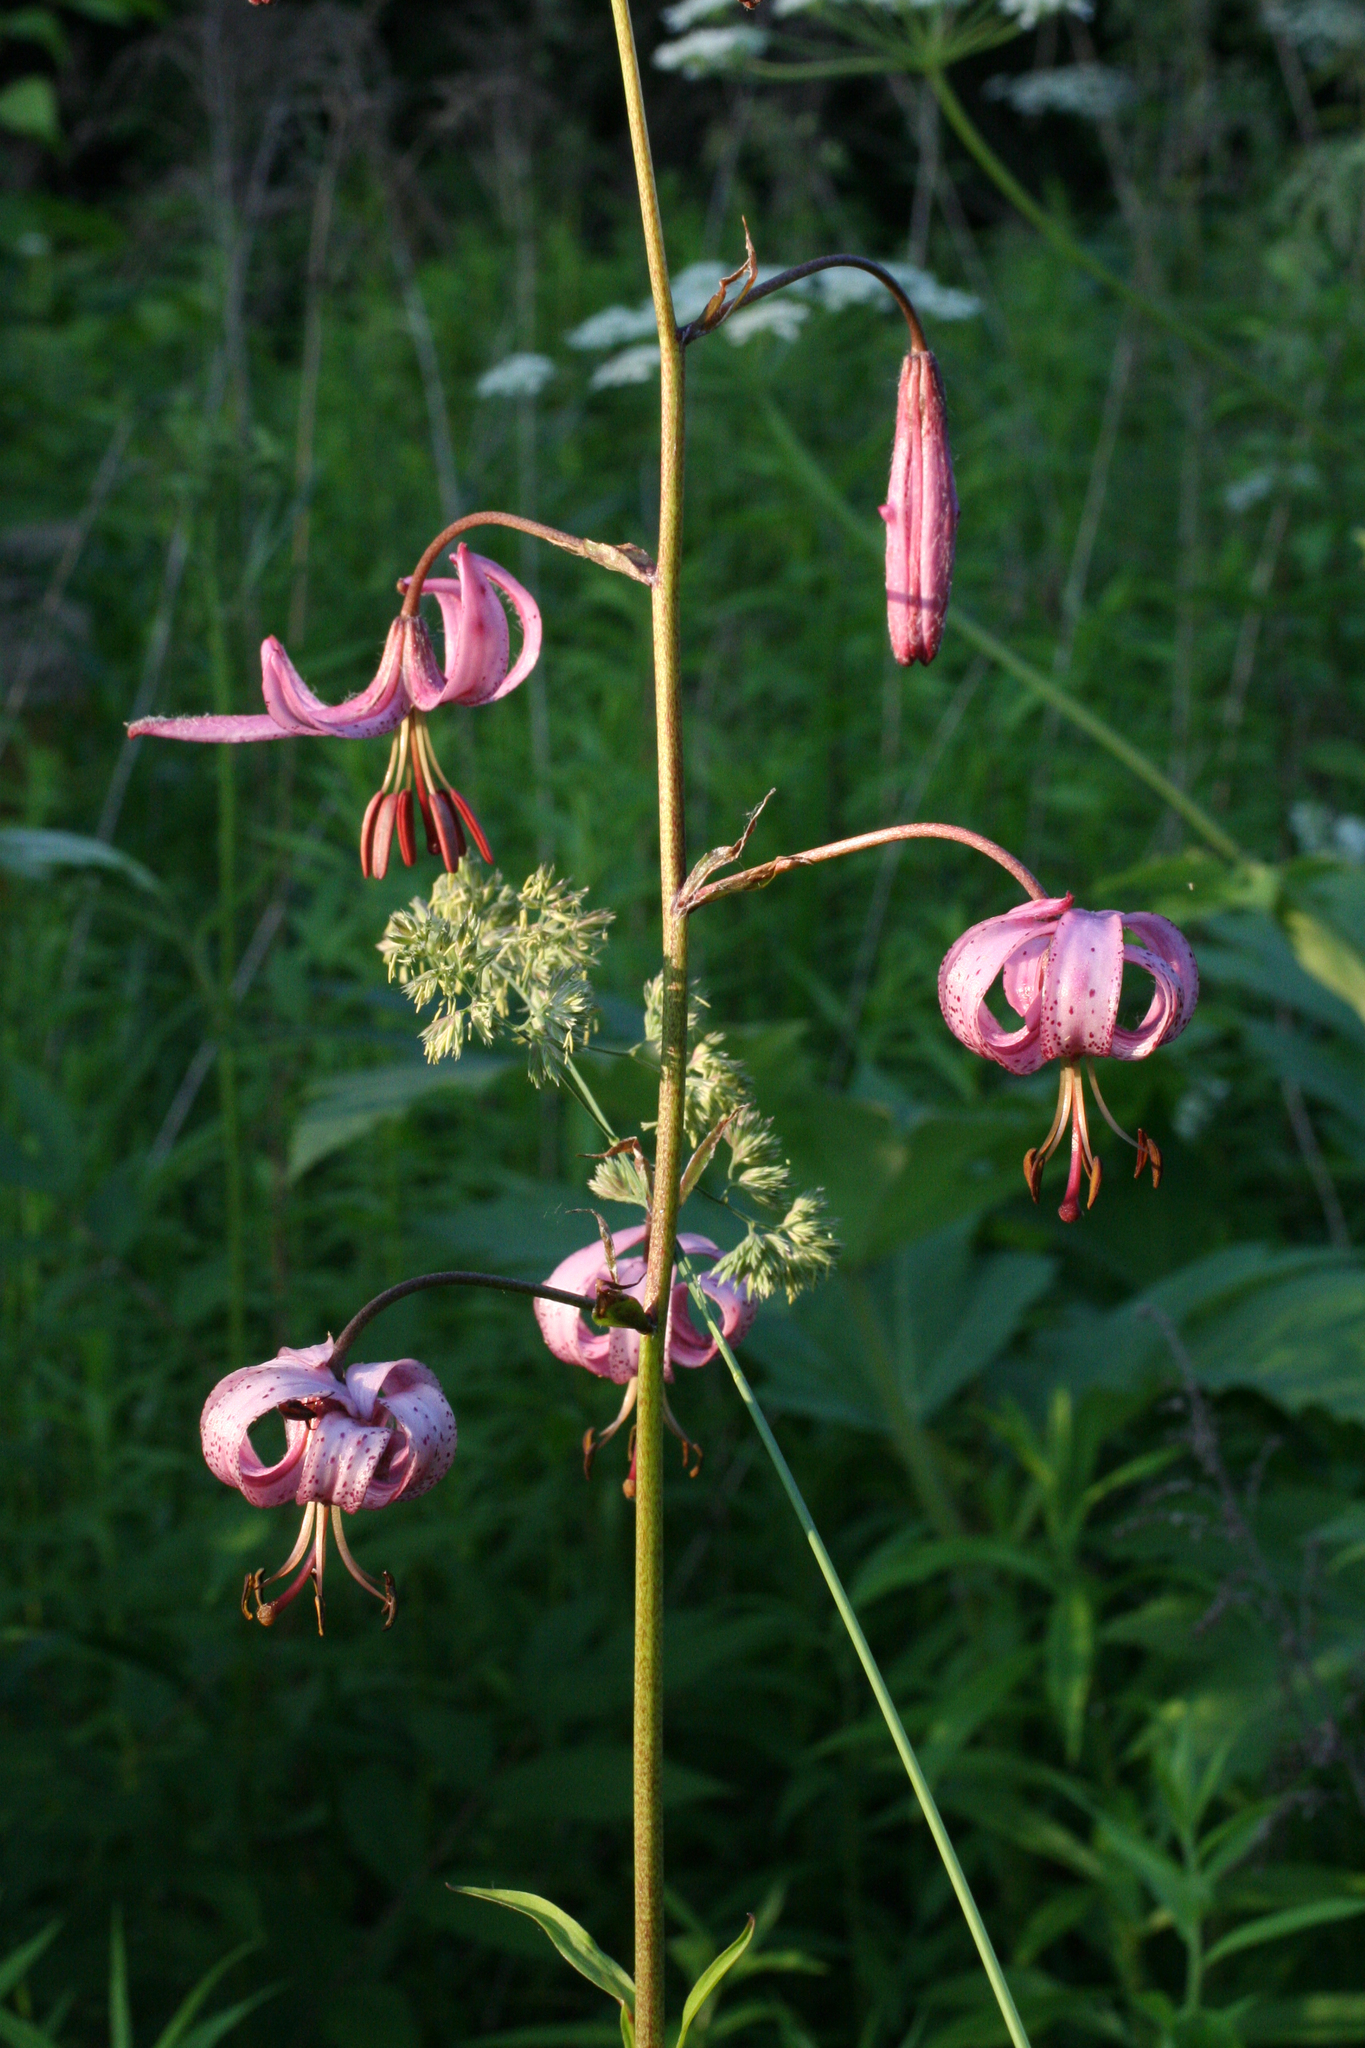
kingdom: Plantae
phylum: Tracheophyta
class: Liliopsida
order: Liliales
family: Liliaceae
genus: Lilium
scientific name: Lilium martagon
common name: Martagon lily
